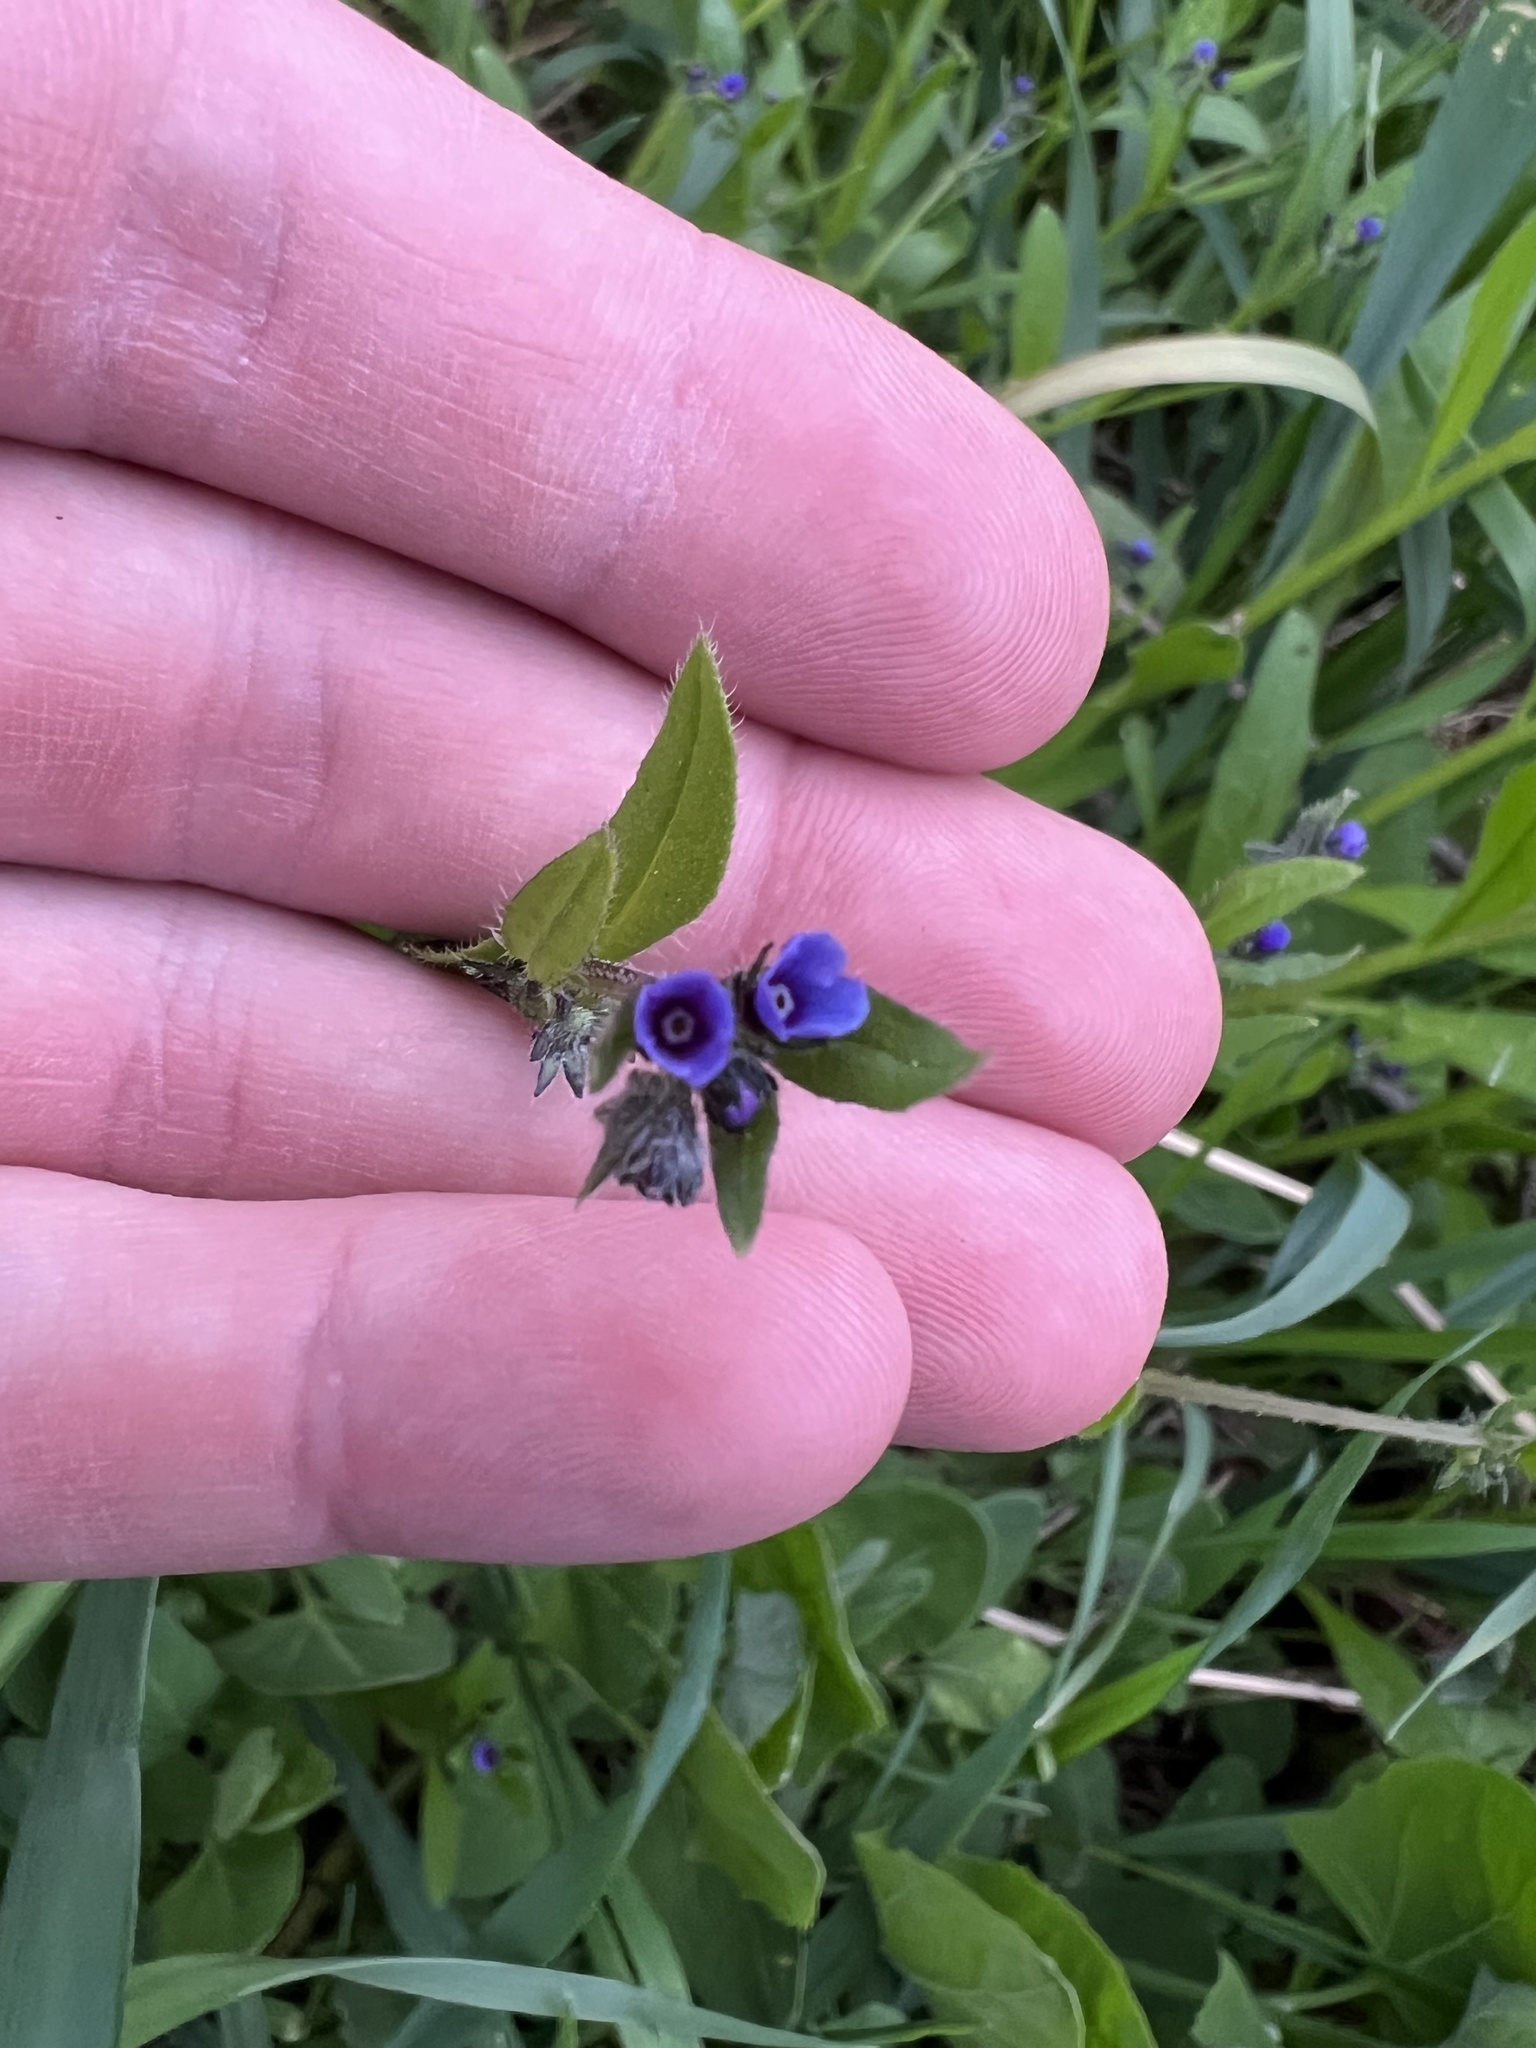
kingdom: Plantae
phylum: Tracheophyta
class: Magnoliopsida
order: Boraginales
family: Boraginaceae
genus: Asperugo
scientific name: Asperugo procumbens
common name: Madwort
